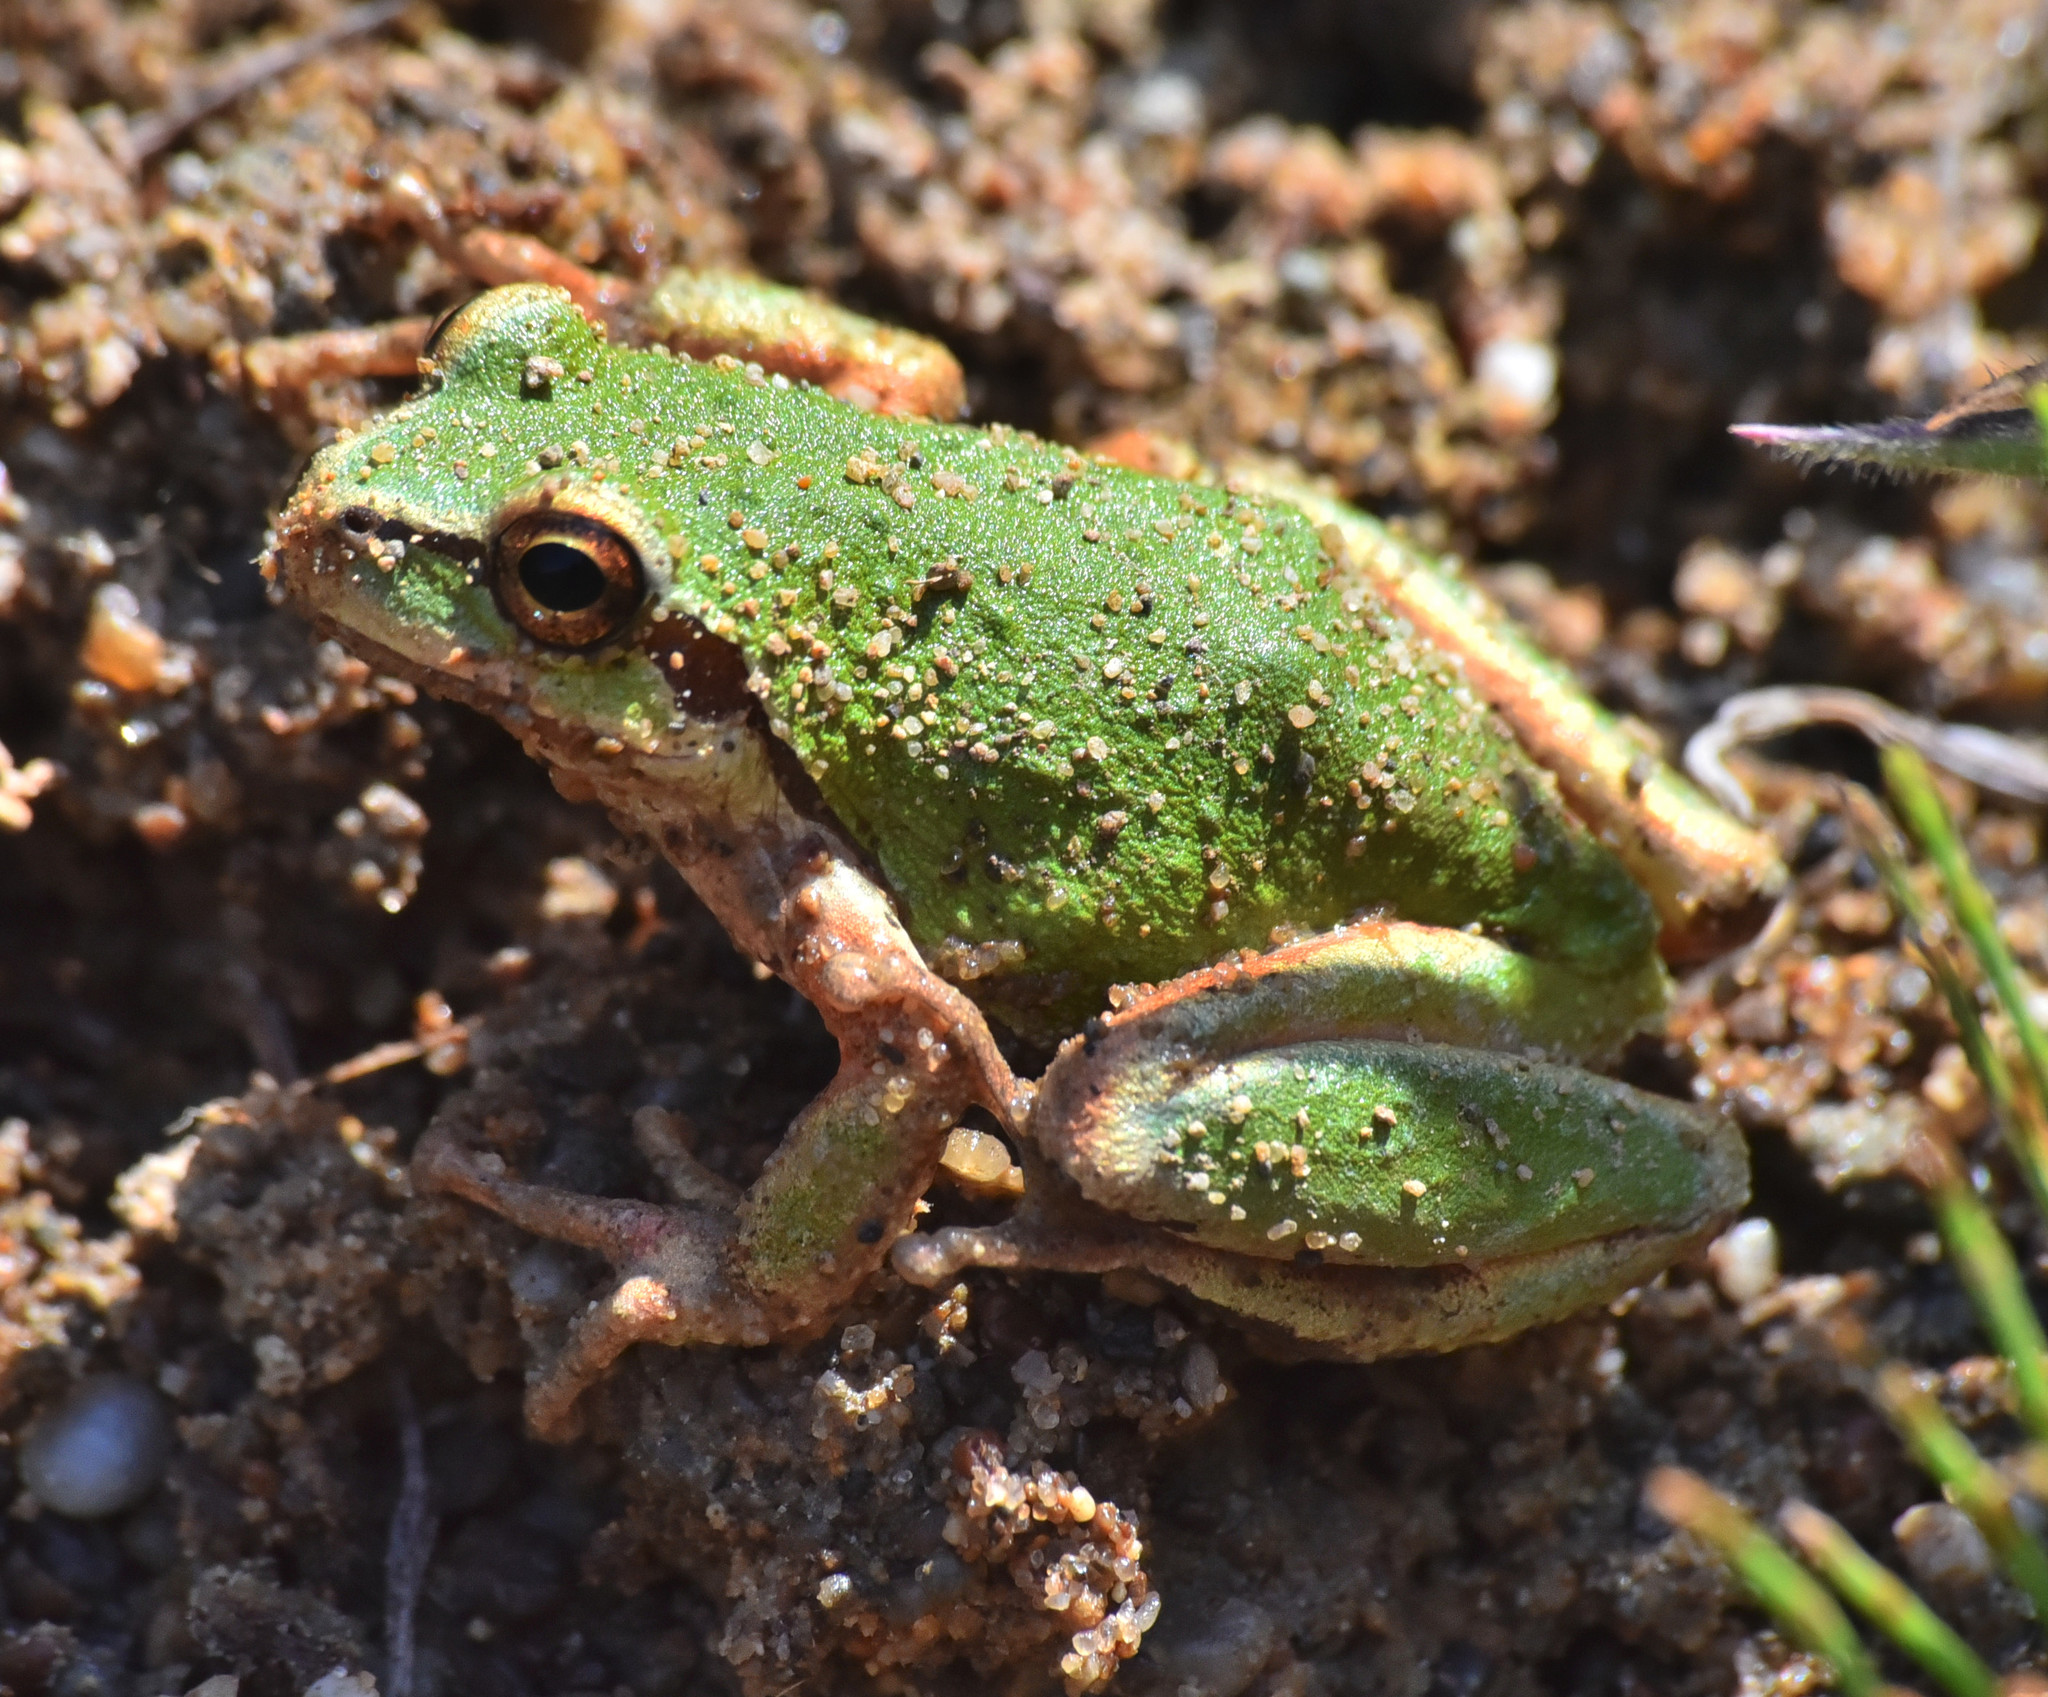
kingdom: Animalia
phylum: Chordata
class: Amphibia
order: Anura
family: Hylidae
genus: Pseudacris
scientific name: Pseudacris regilla
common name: Pacific chorus frog
